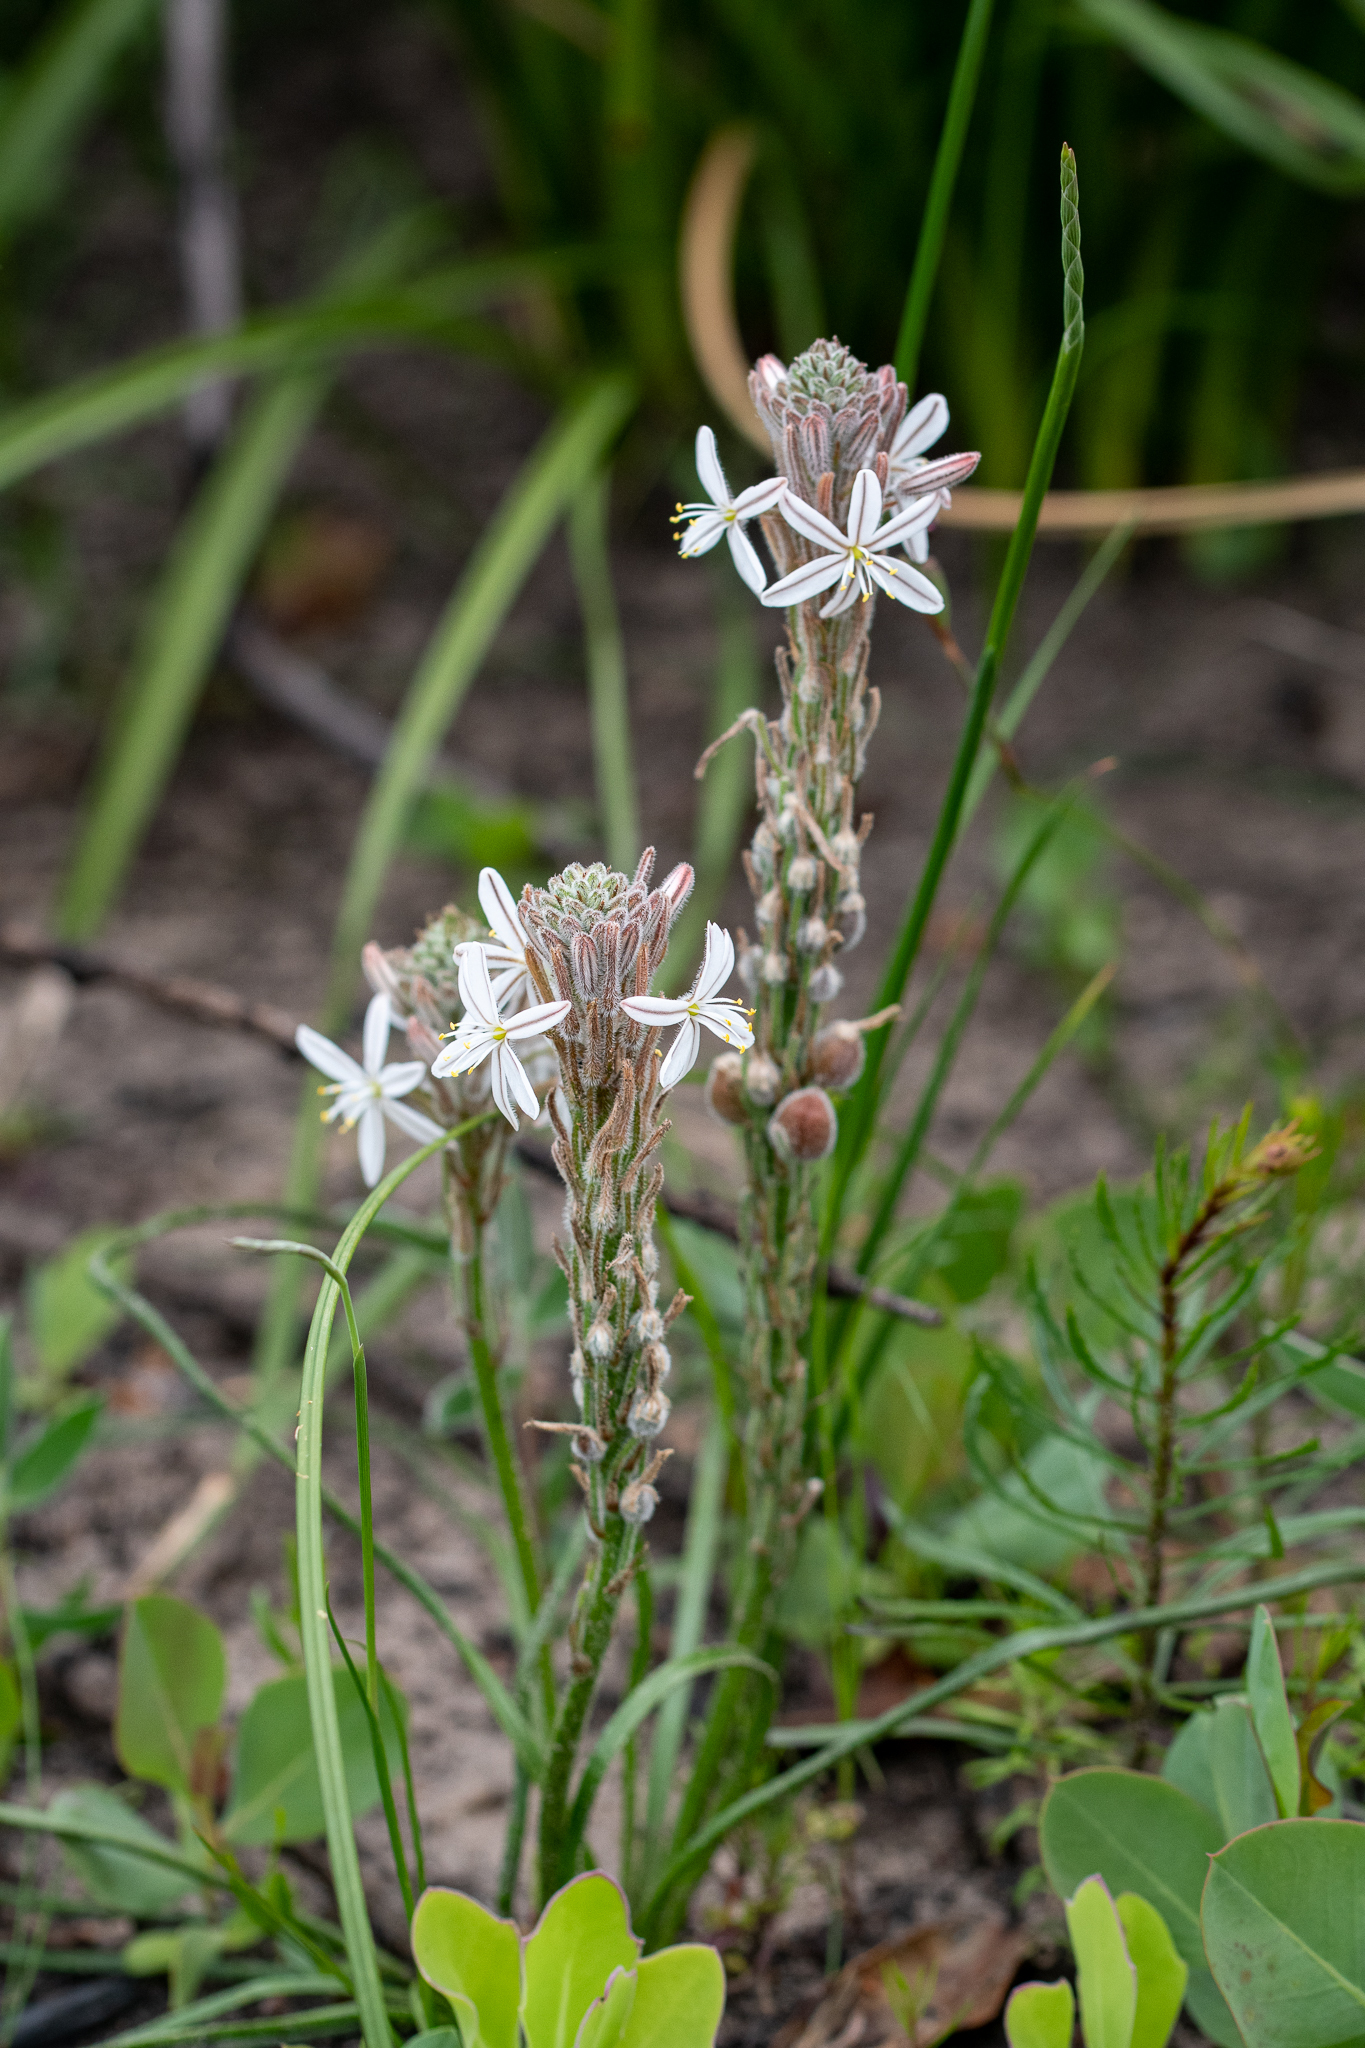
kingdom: Plantae
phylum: Tracheophyta
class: Liliopsida
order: Asparagales
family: Asphodelaceae
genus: Trachyandra
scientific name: Trachyandra hirsutiflora
